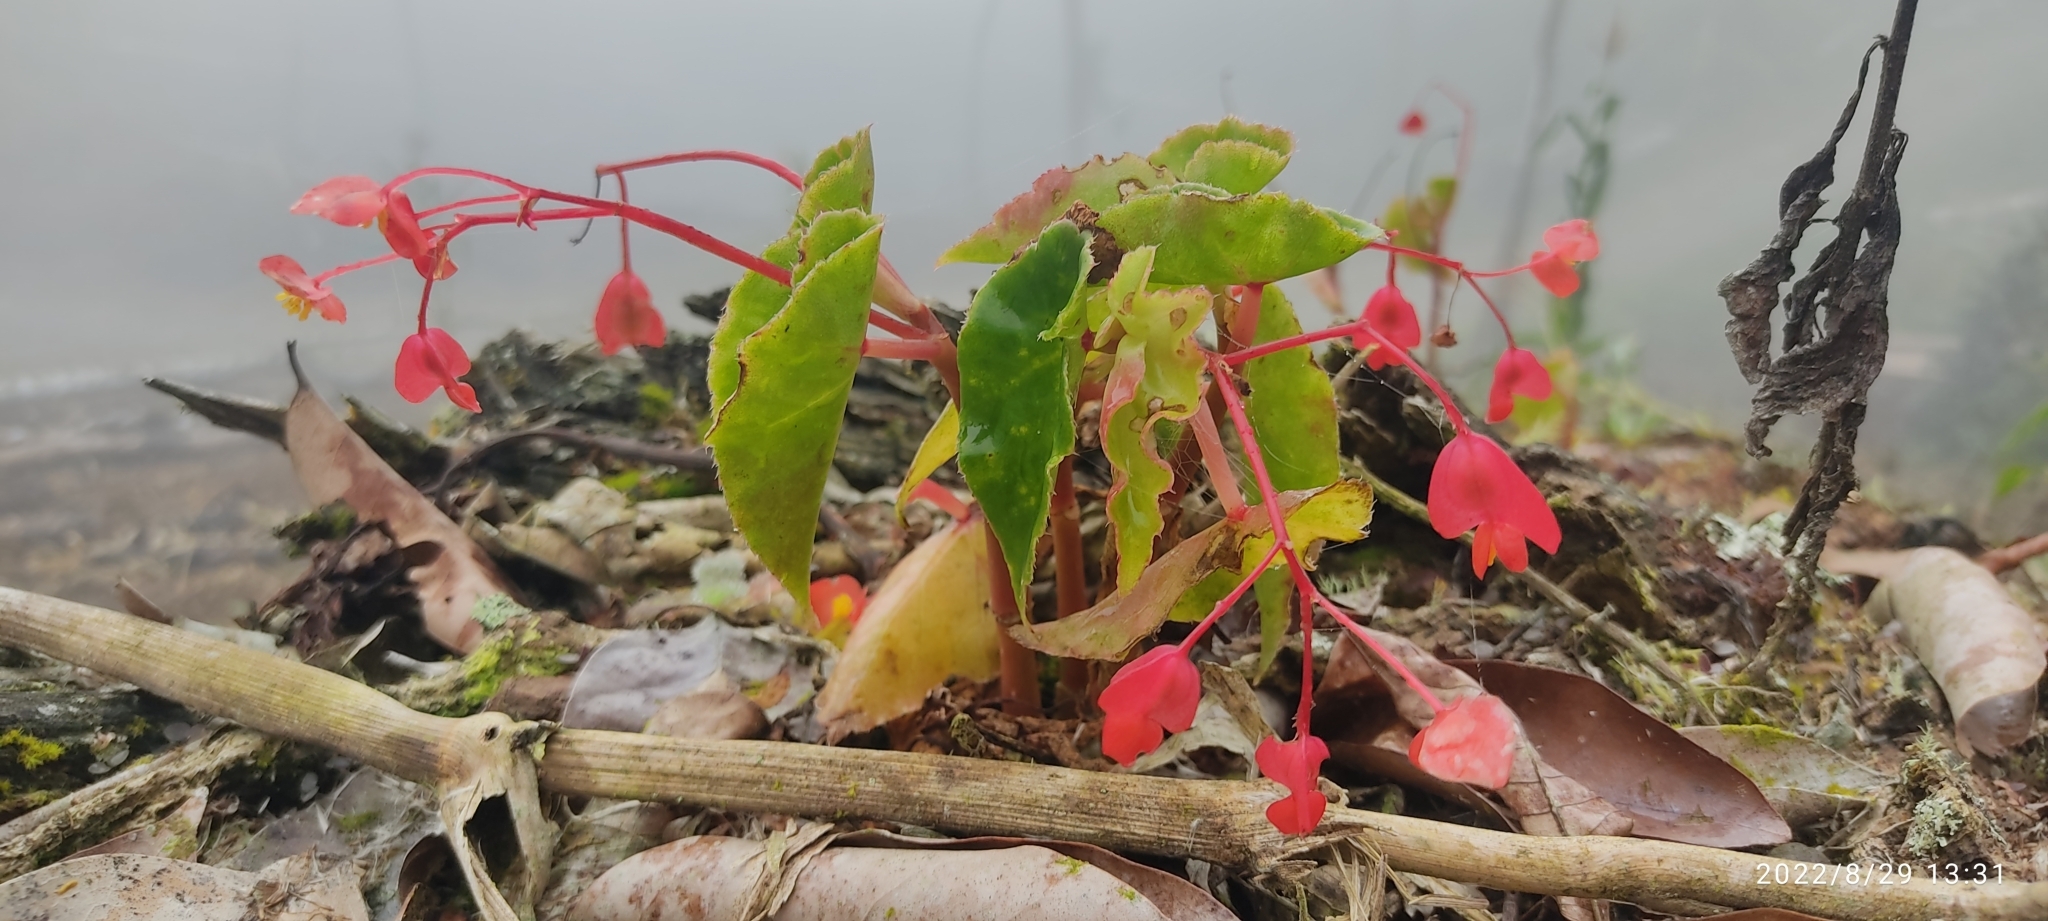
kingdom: Plantae
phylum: Tracheophyta
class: Magnoliopsida
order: Cucurbitales
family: Begoniaceae
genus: Begonia
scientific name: Begonia bracteosa
